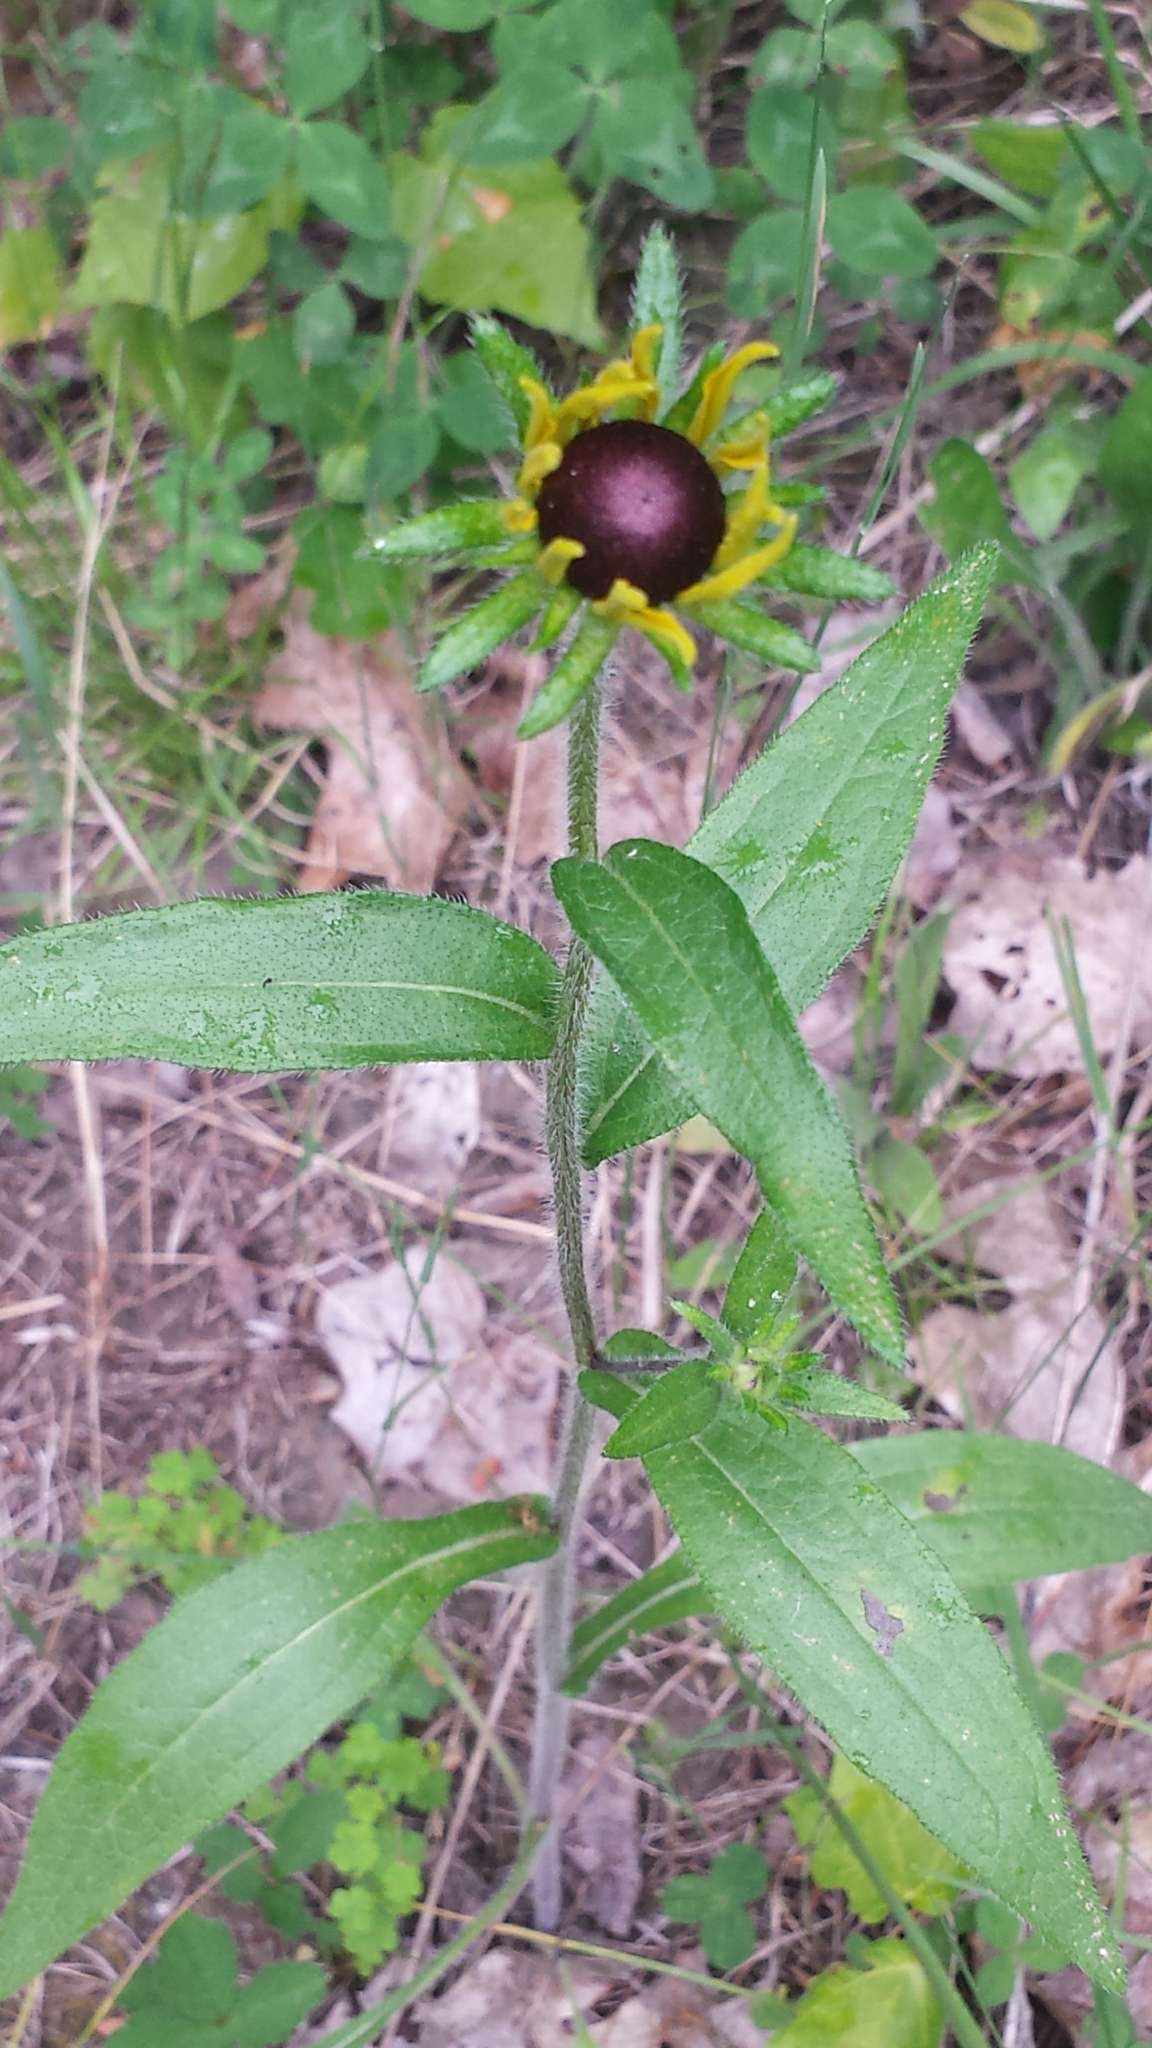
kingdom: Plantae
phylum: Tracheophyta
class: Magnoliopsida
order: Asterales
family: Asteraceae
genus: Rudbeckia
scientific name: Rudbeckia hirta
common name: Black-eyed-susan
